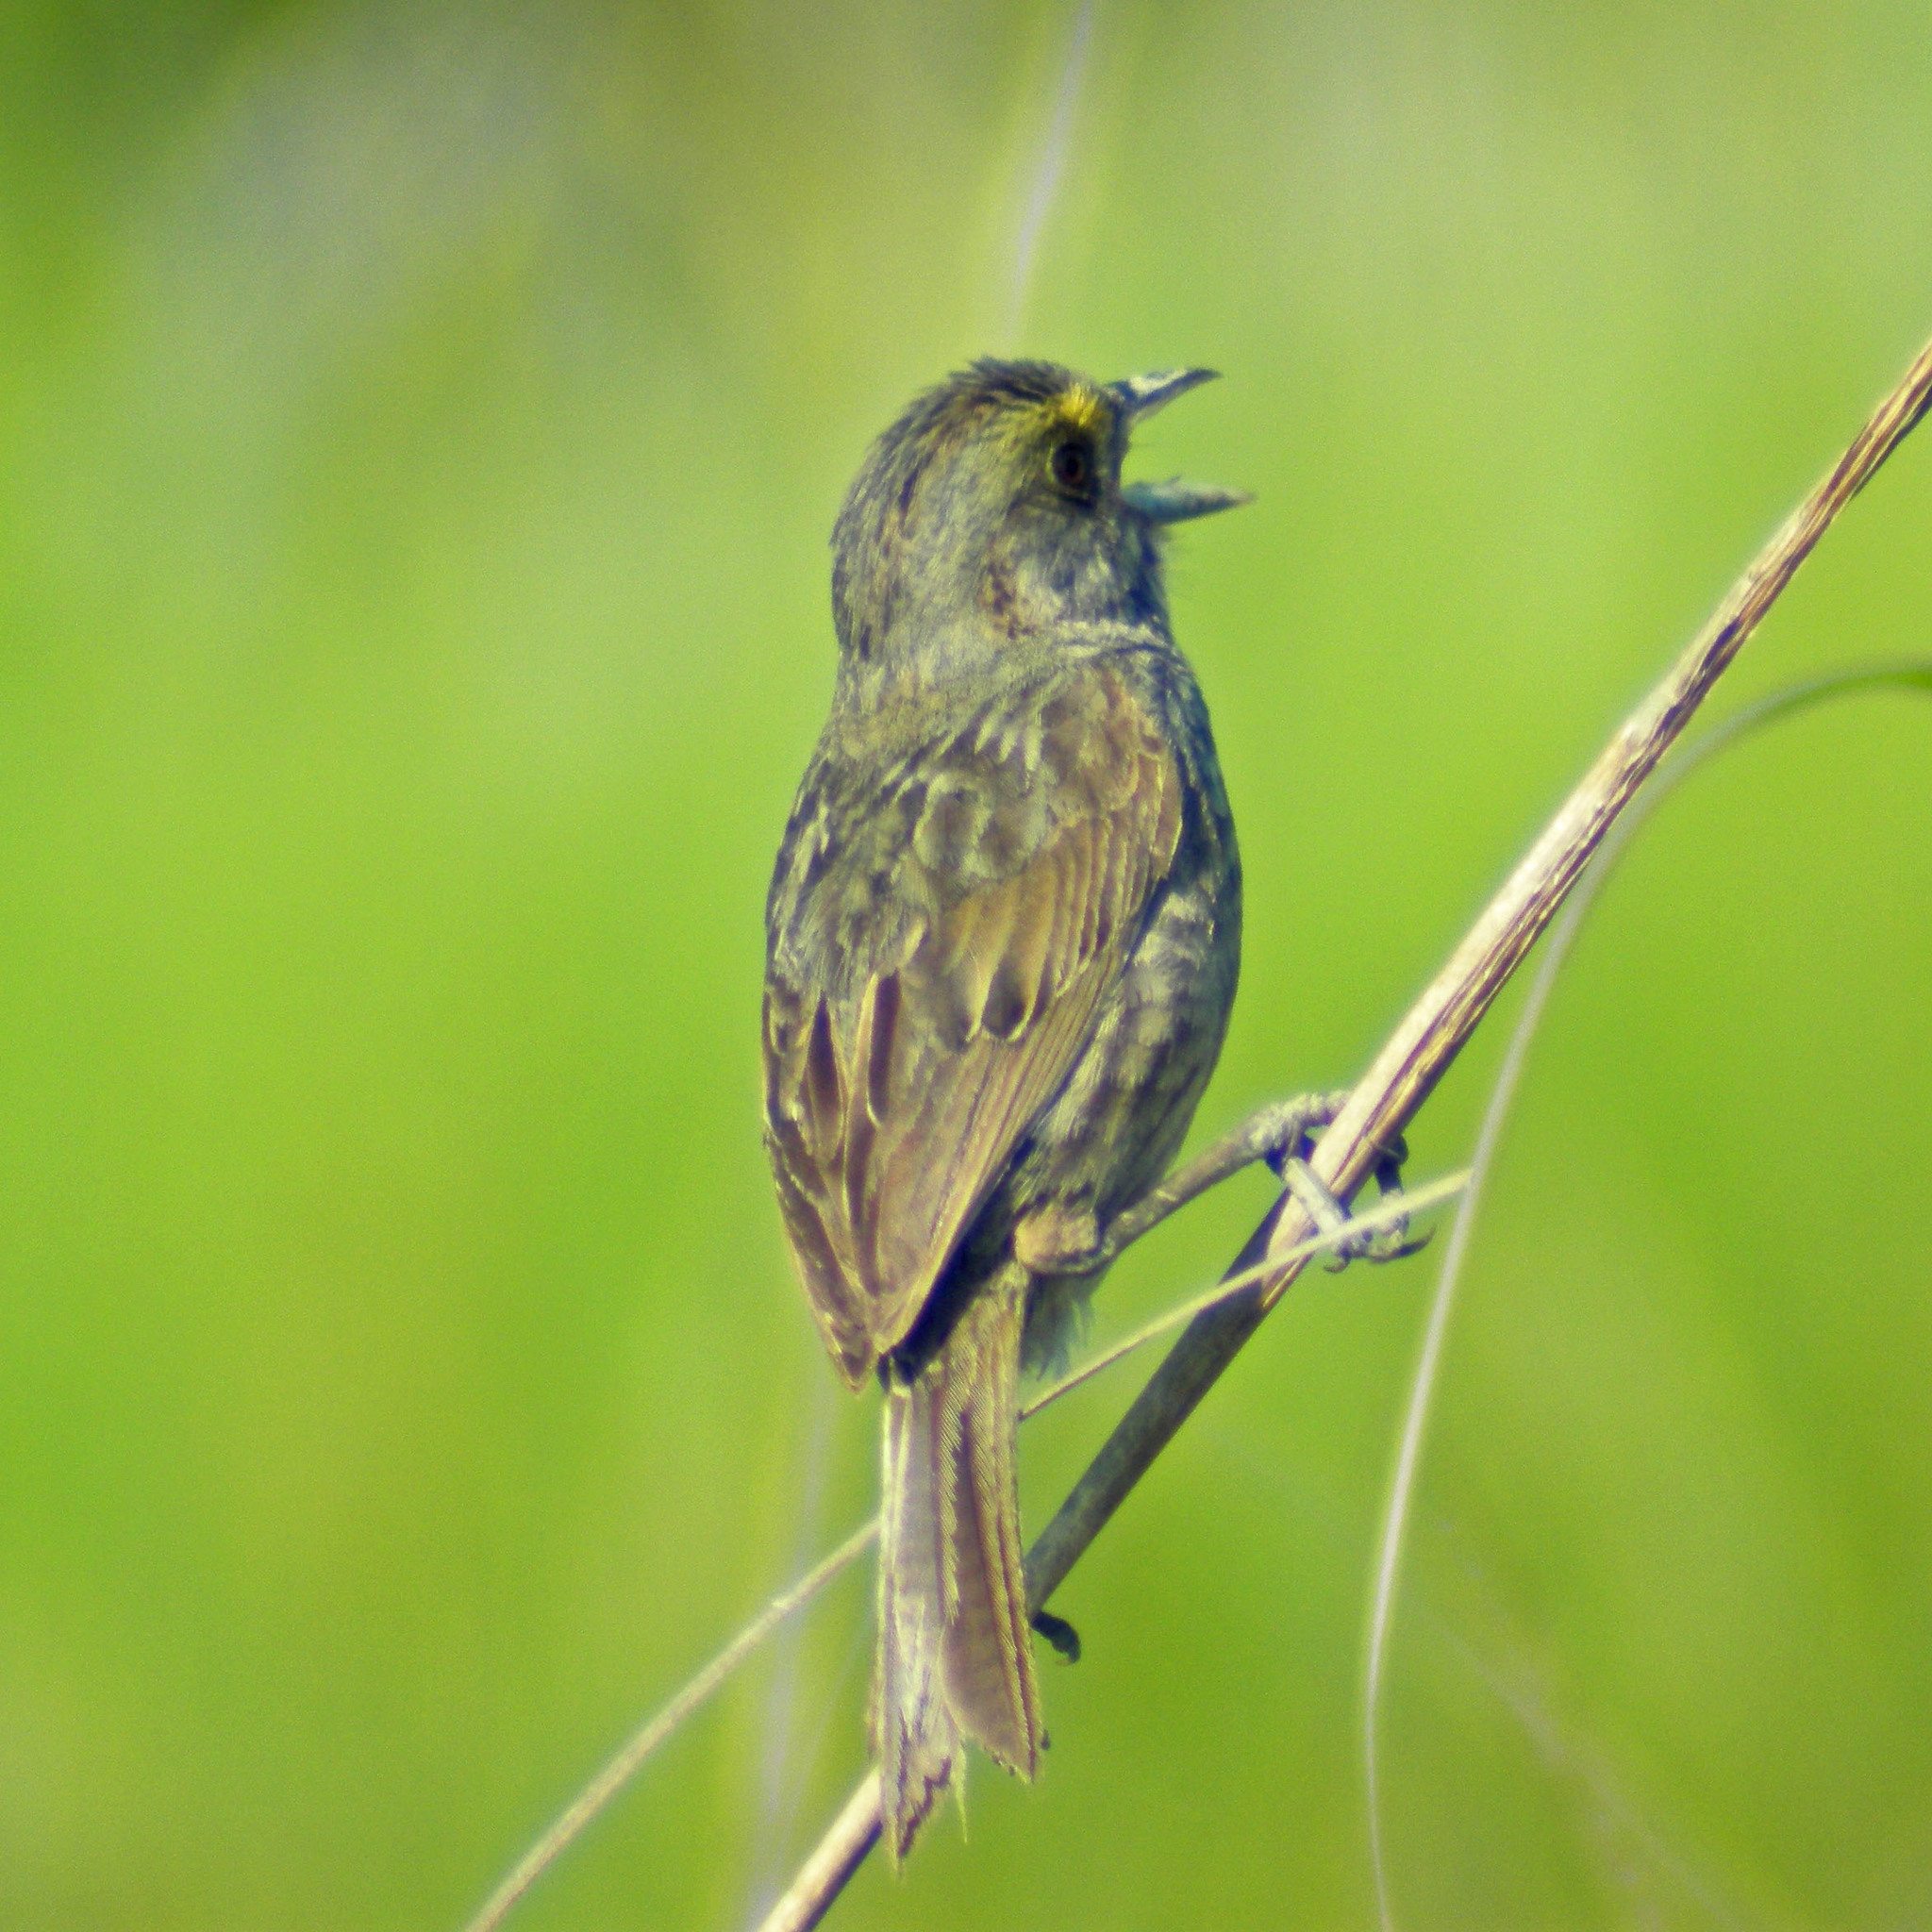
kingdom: Animalia
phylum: Chordata
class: Aves
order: Passeriformes
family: Passerellidae
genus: Ammospiza
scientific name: Ammospiza maritima
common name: Seaside sparrow
